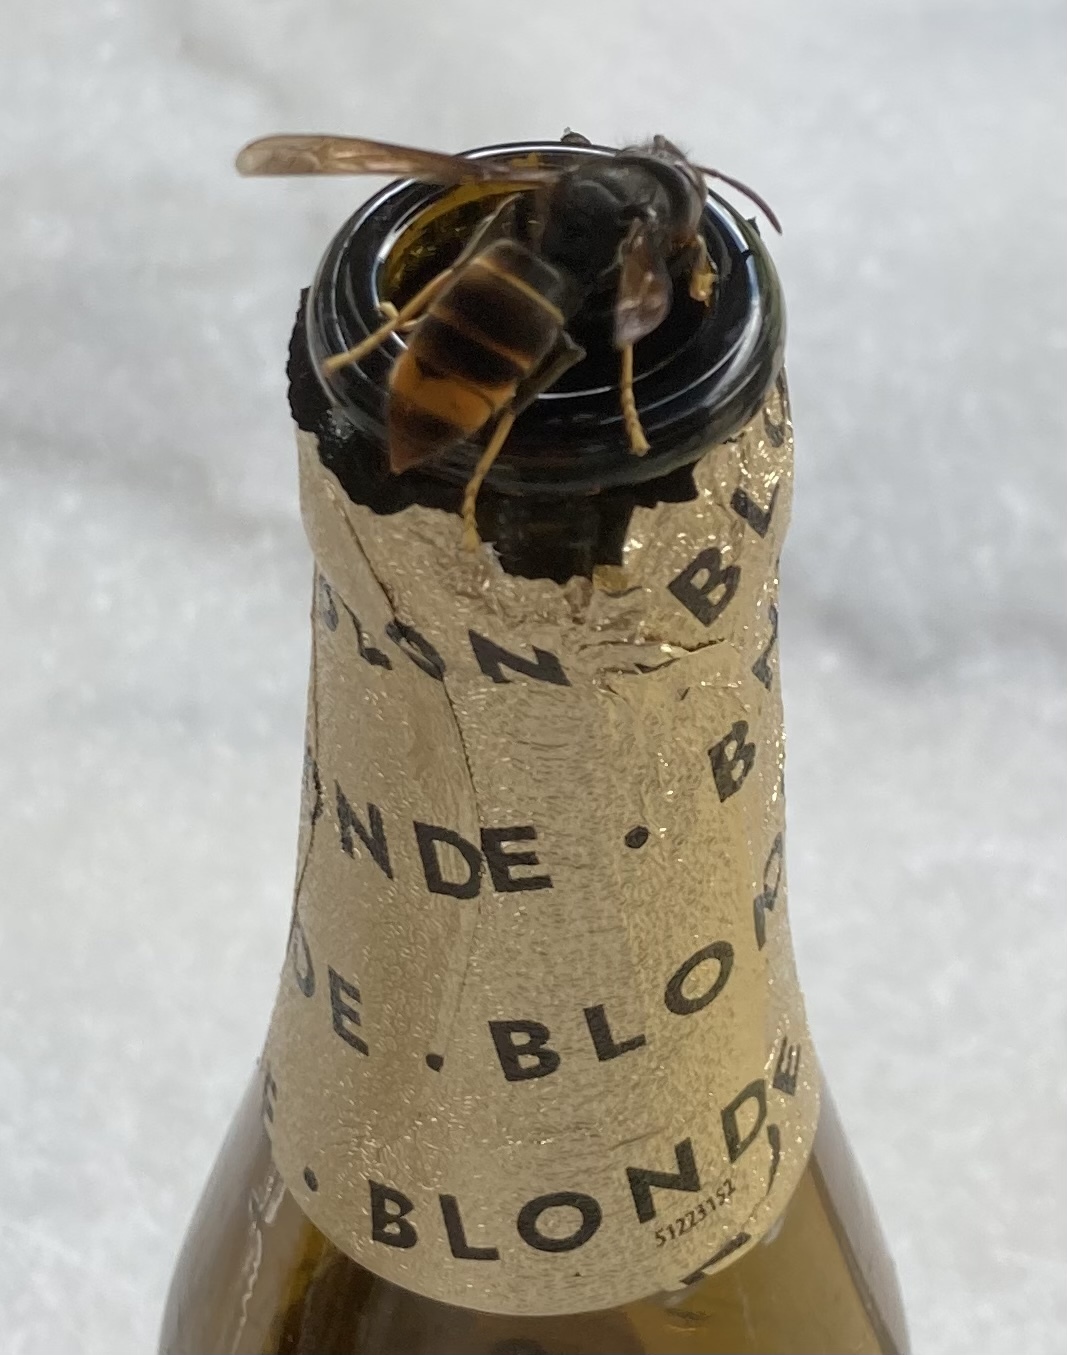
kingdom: Animalia
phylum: Arthropoda
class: Insecta
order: Hymenoptera
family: Vespidae
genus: Vespa
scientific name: Vespa velutina
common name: Asian hornet
